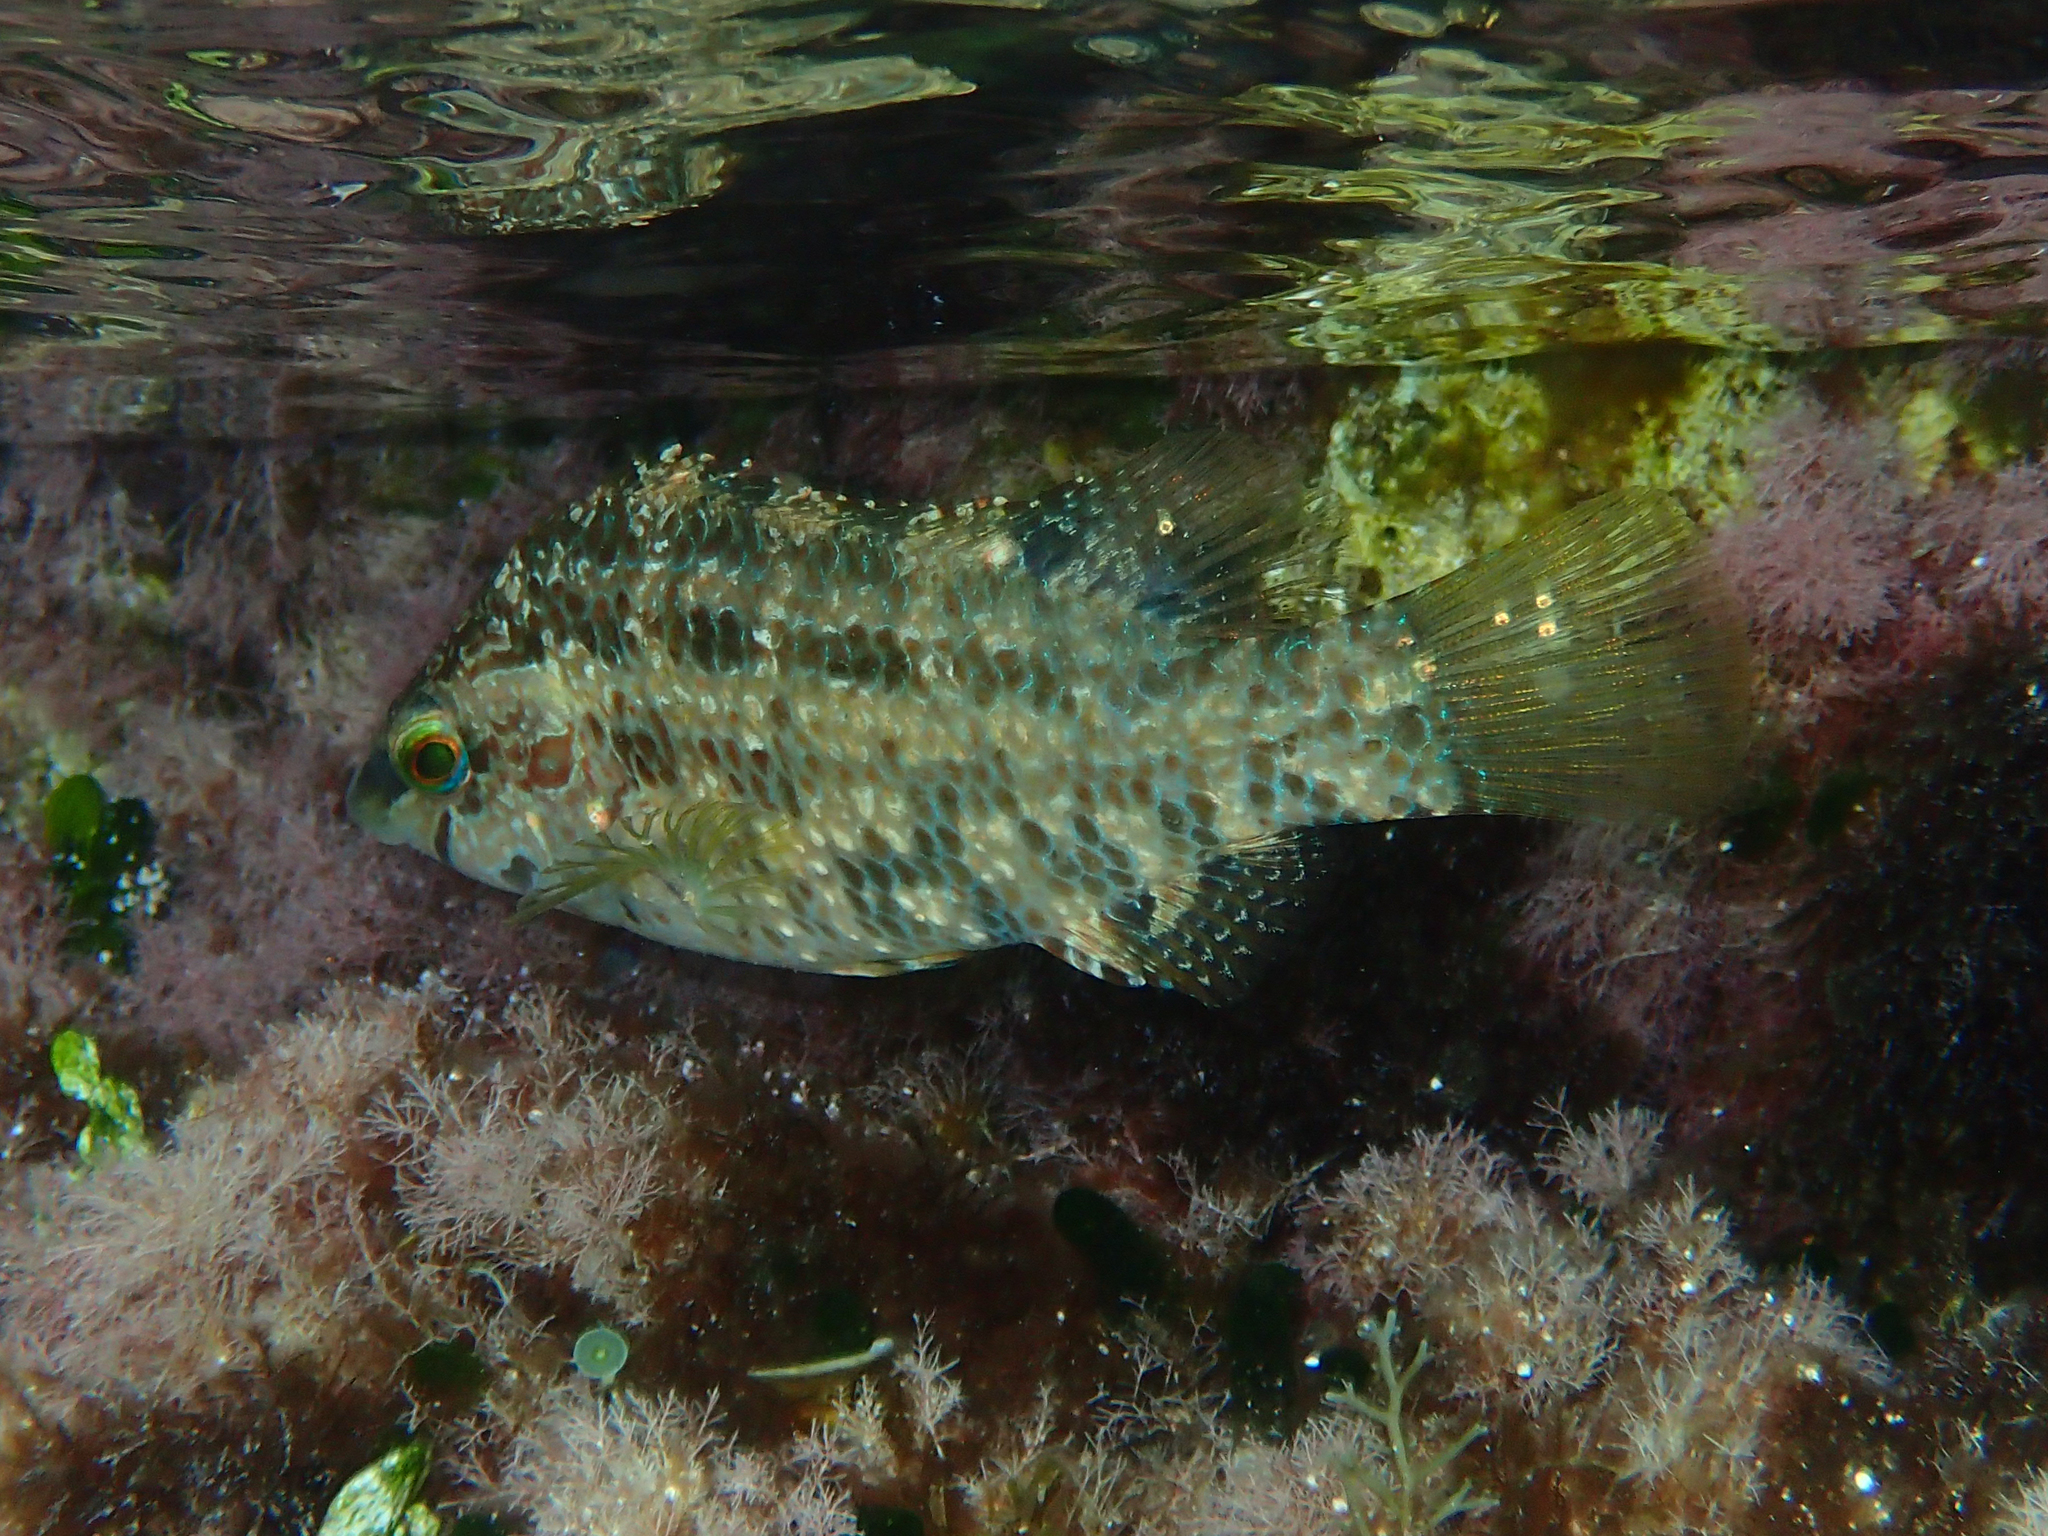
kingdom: Animalia
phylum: Chordata
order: Perciformes
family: Labridae
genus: Symphodus
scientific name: Symphodus roissali
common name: Five-spotted wrasse
